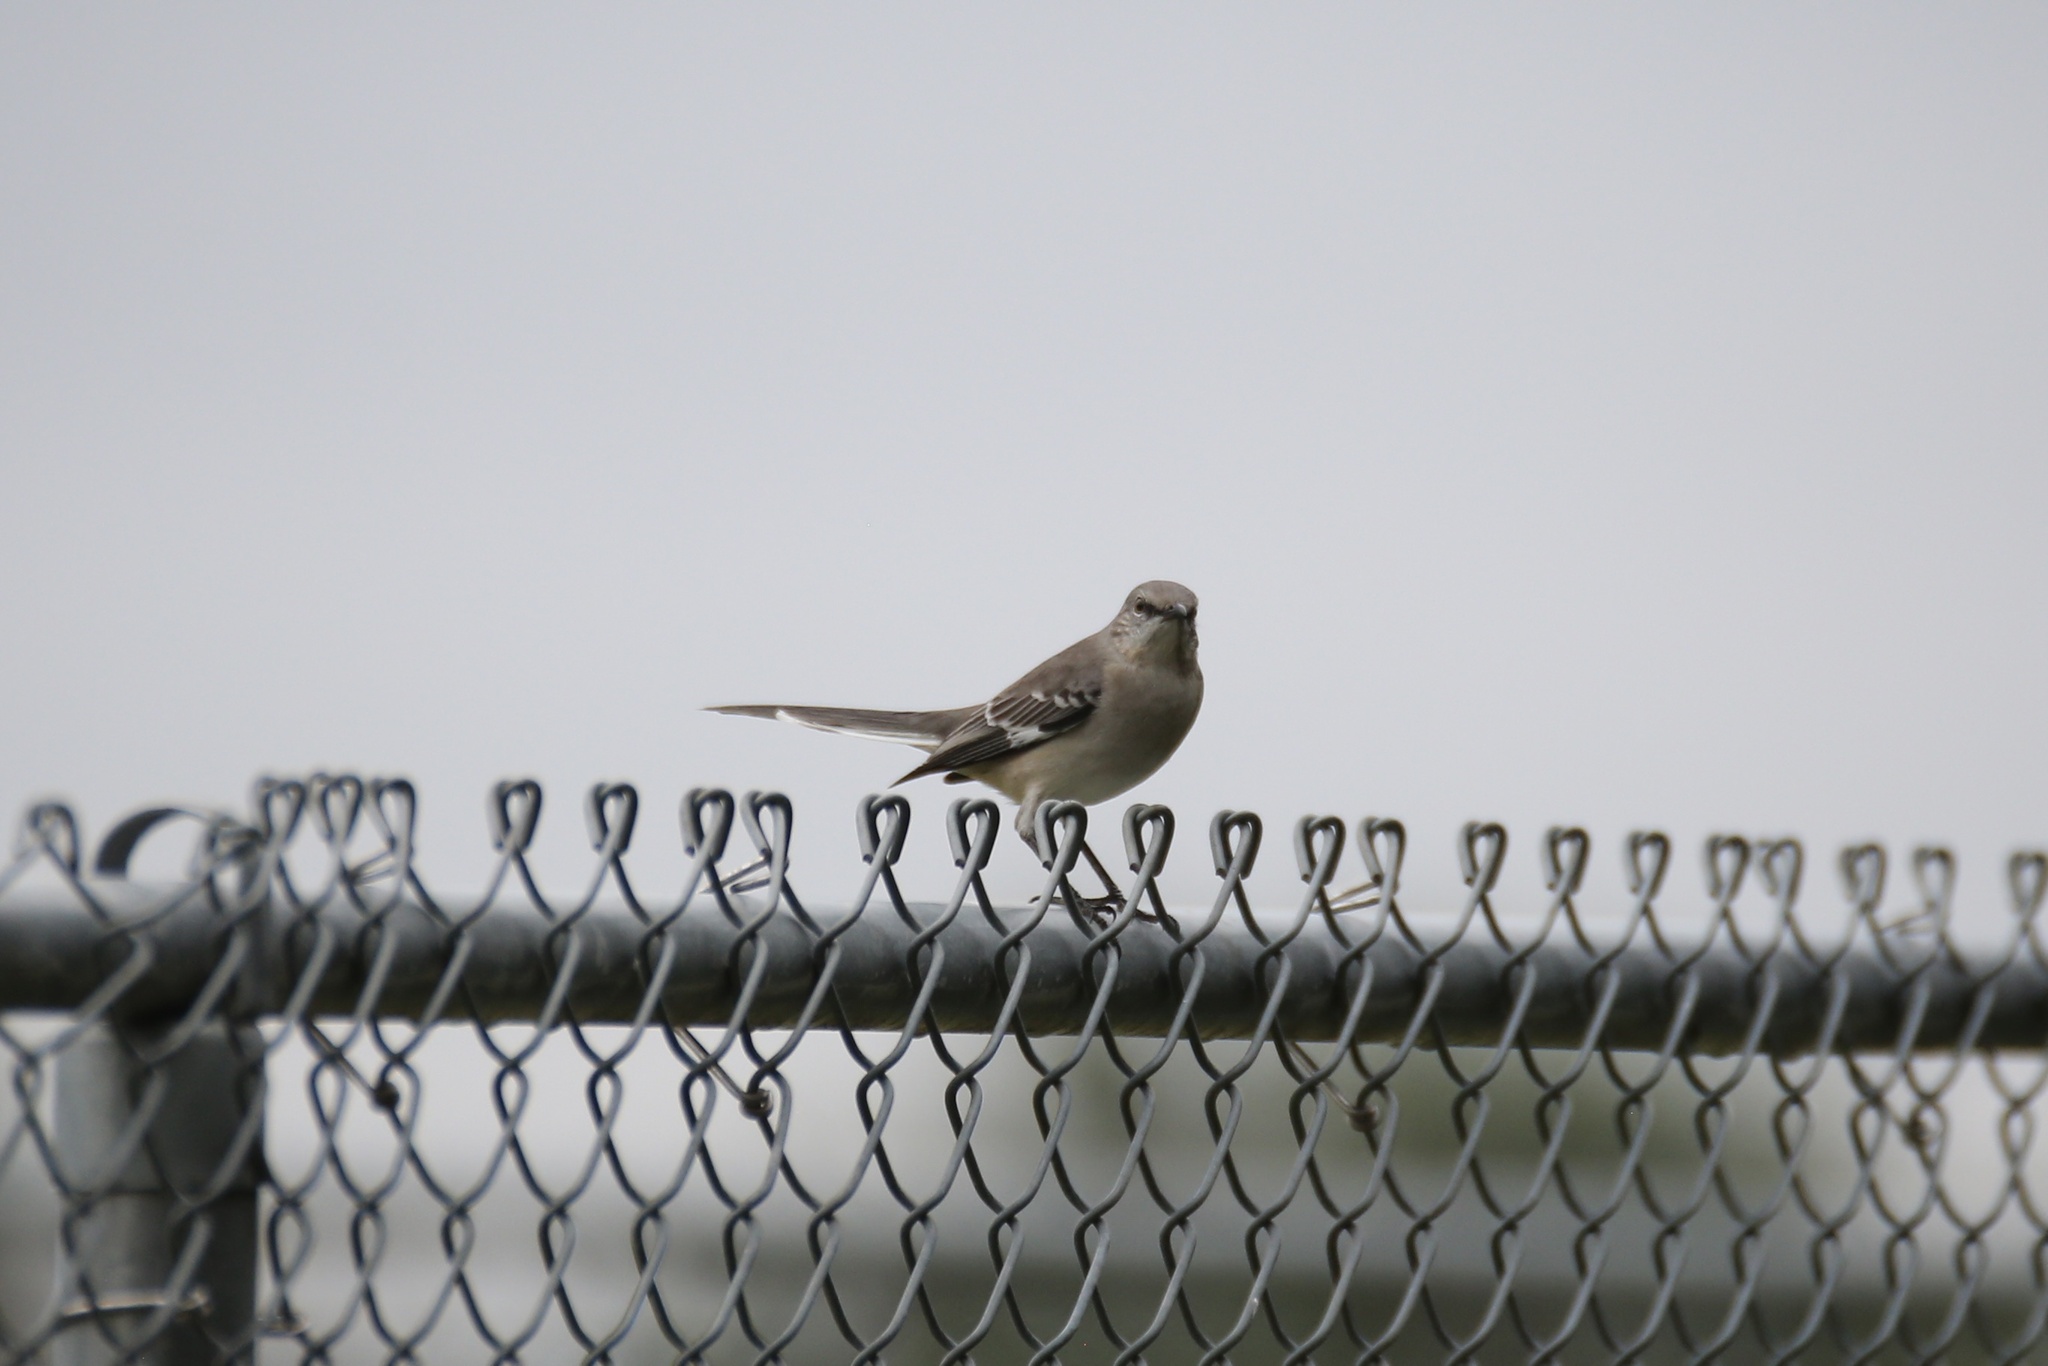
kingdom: Animalia
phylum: Chordata
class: Aves
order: Passeriformes
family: Mimidae
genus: Mimus
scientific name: Mimus polyglottos
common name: Northern mockingbird
